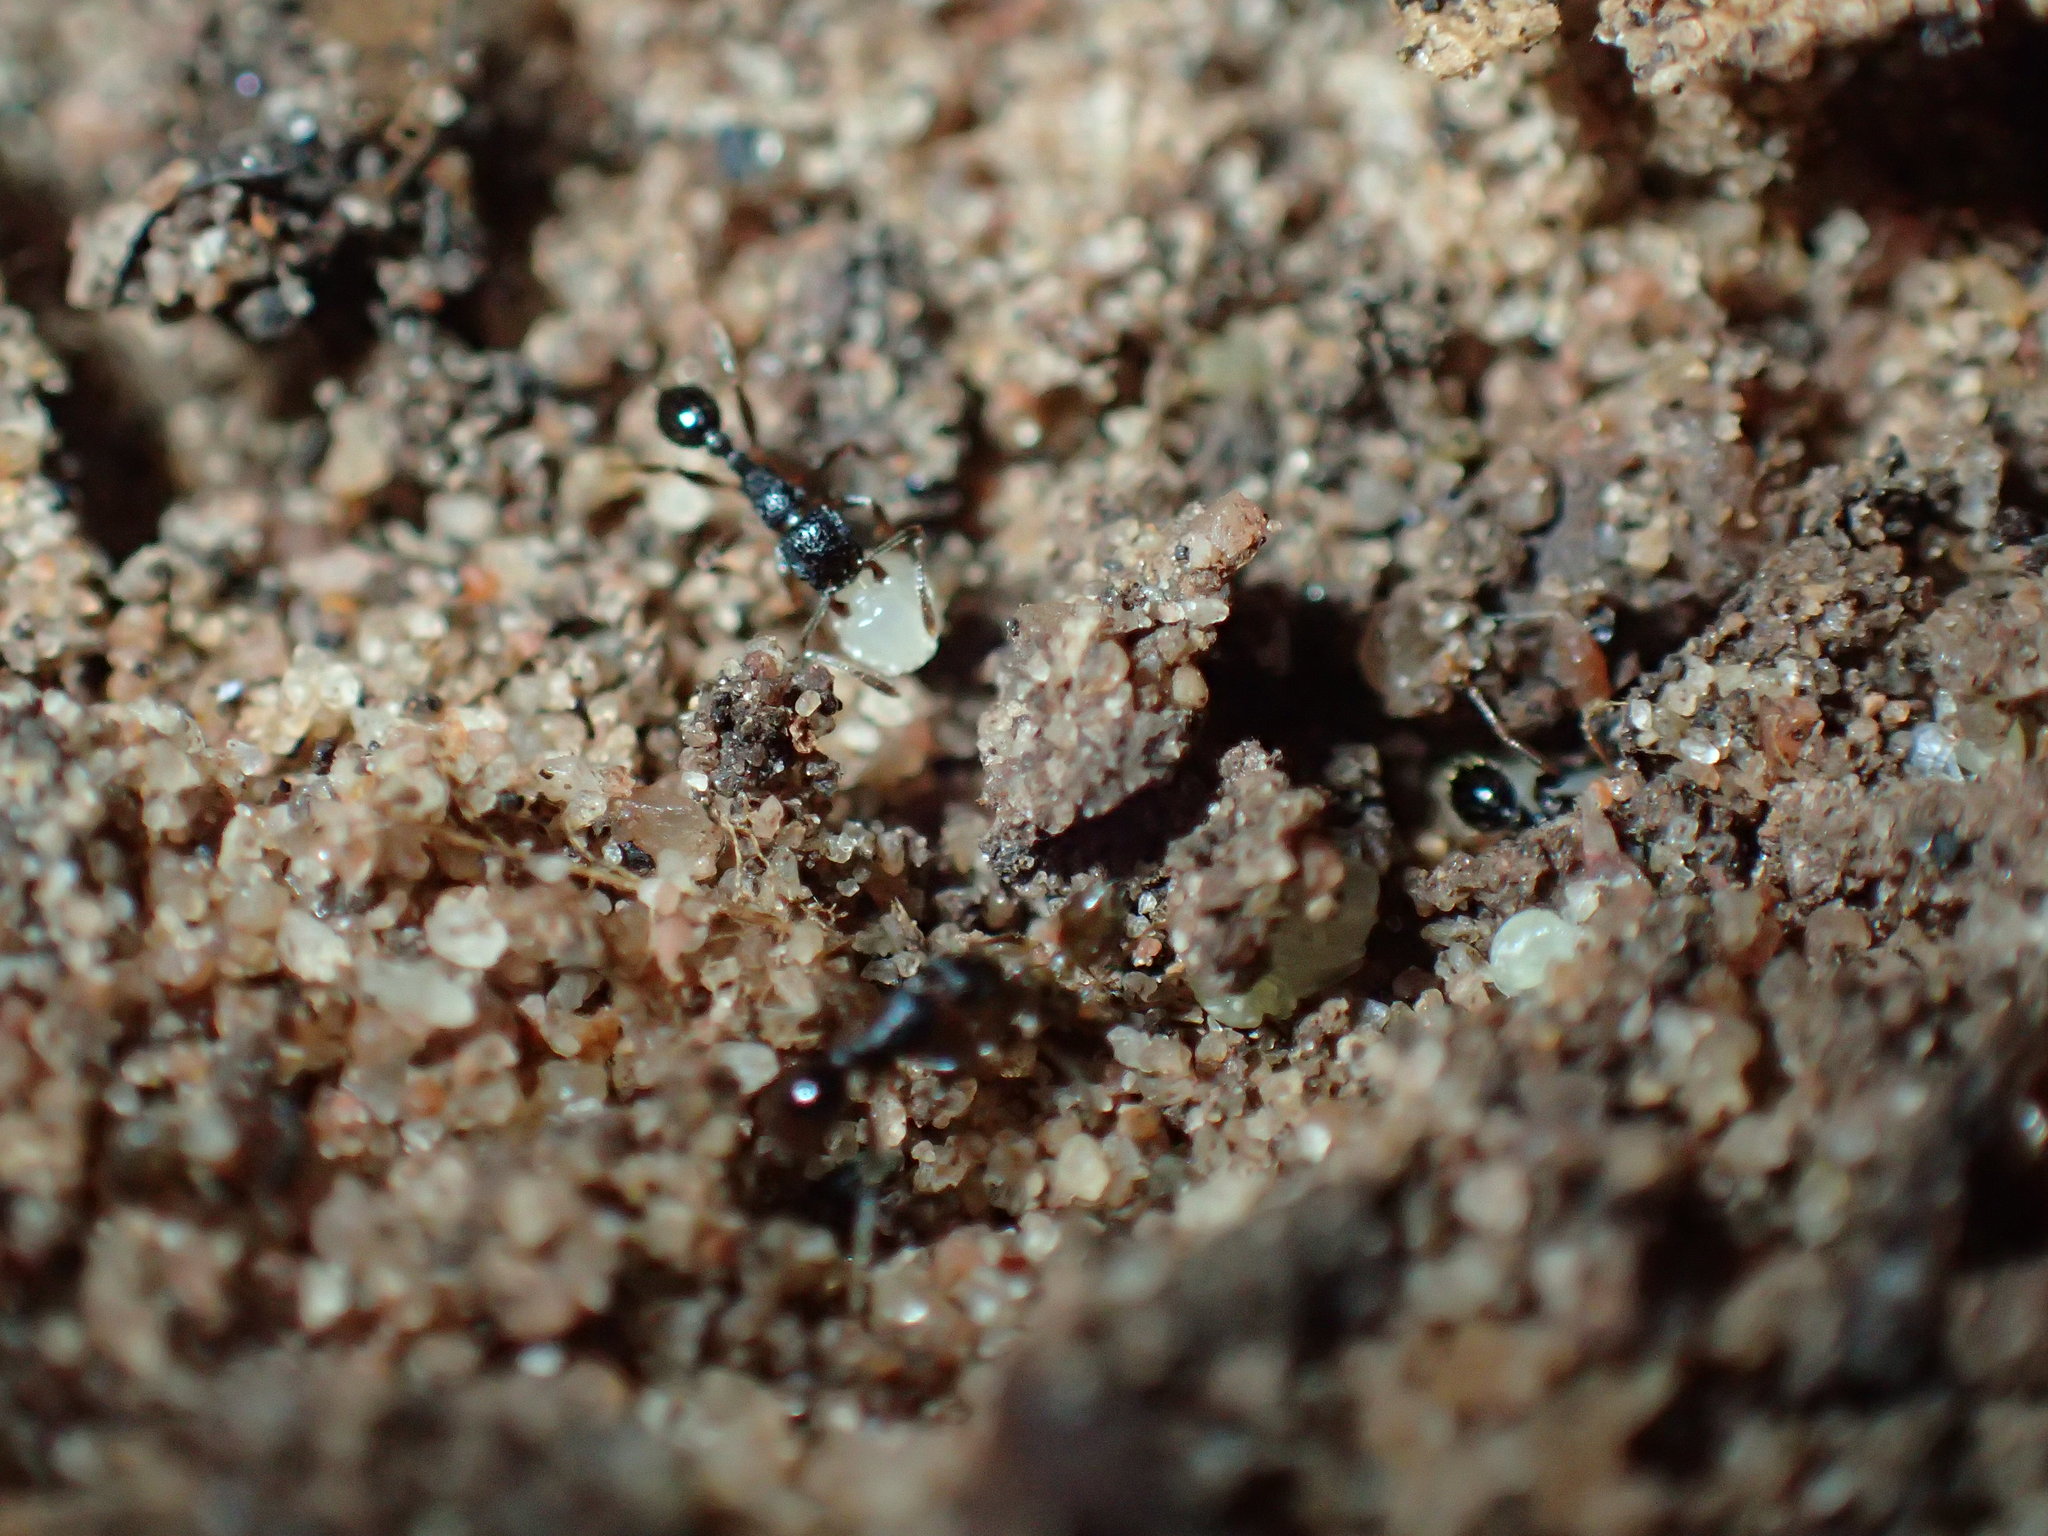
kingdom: Animalia
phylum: Arthropoda
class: Insecta
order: Hymenoptera
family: Formicidae
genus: Tetramorium
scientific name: Tetramorium grassii
